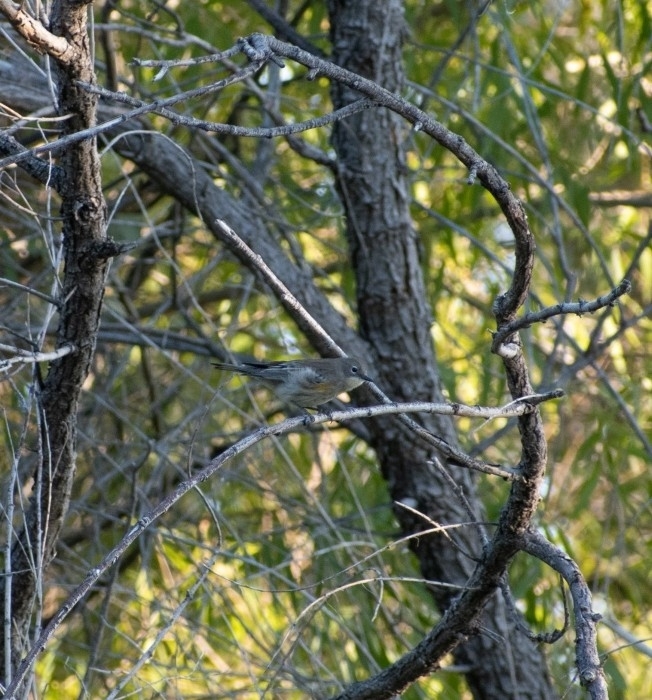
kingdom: Animalia
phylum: Chordata
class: Aves
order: Passeriformes
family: Parulidae
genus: Setophaga
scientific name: Setophaga coronata
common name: Myrtle warbler
